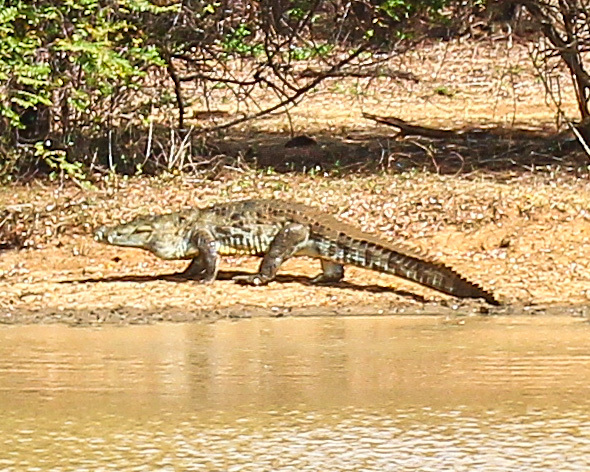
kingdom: Animalia
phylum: Chordata
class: Crocodylia
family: Crocodylidae
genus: Crocodylus
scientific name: Crocodylus palustris
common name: Mugger crocodile
